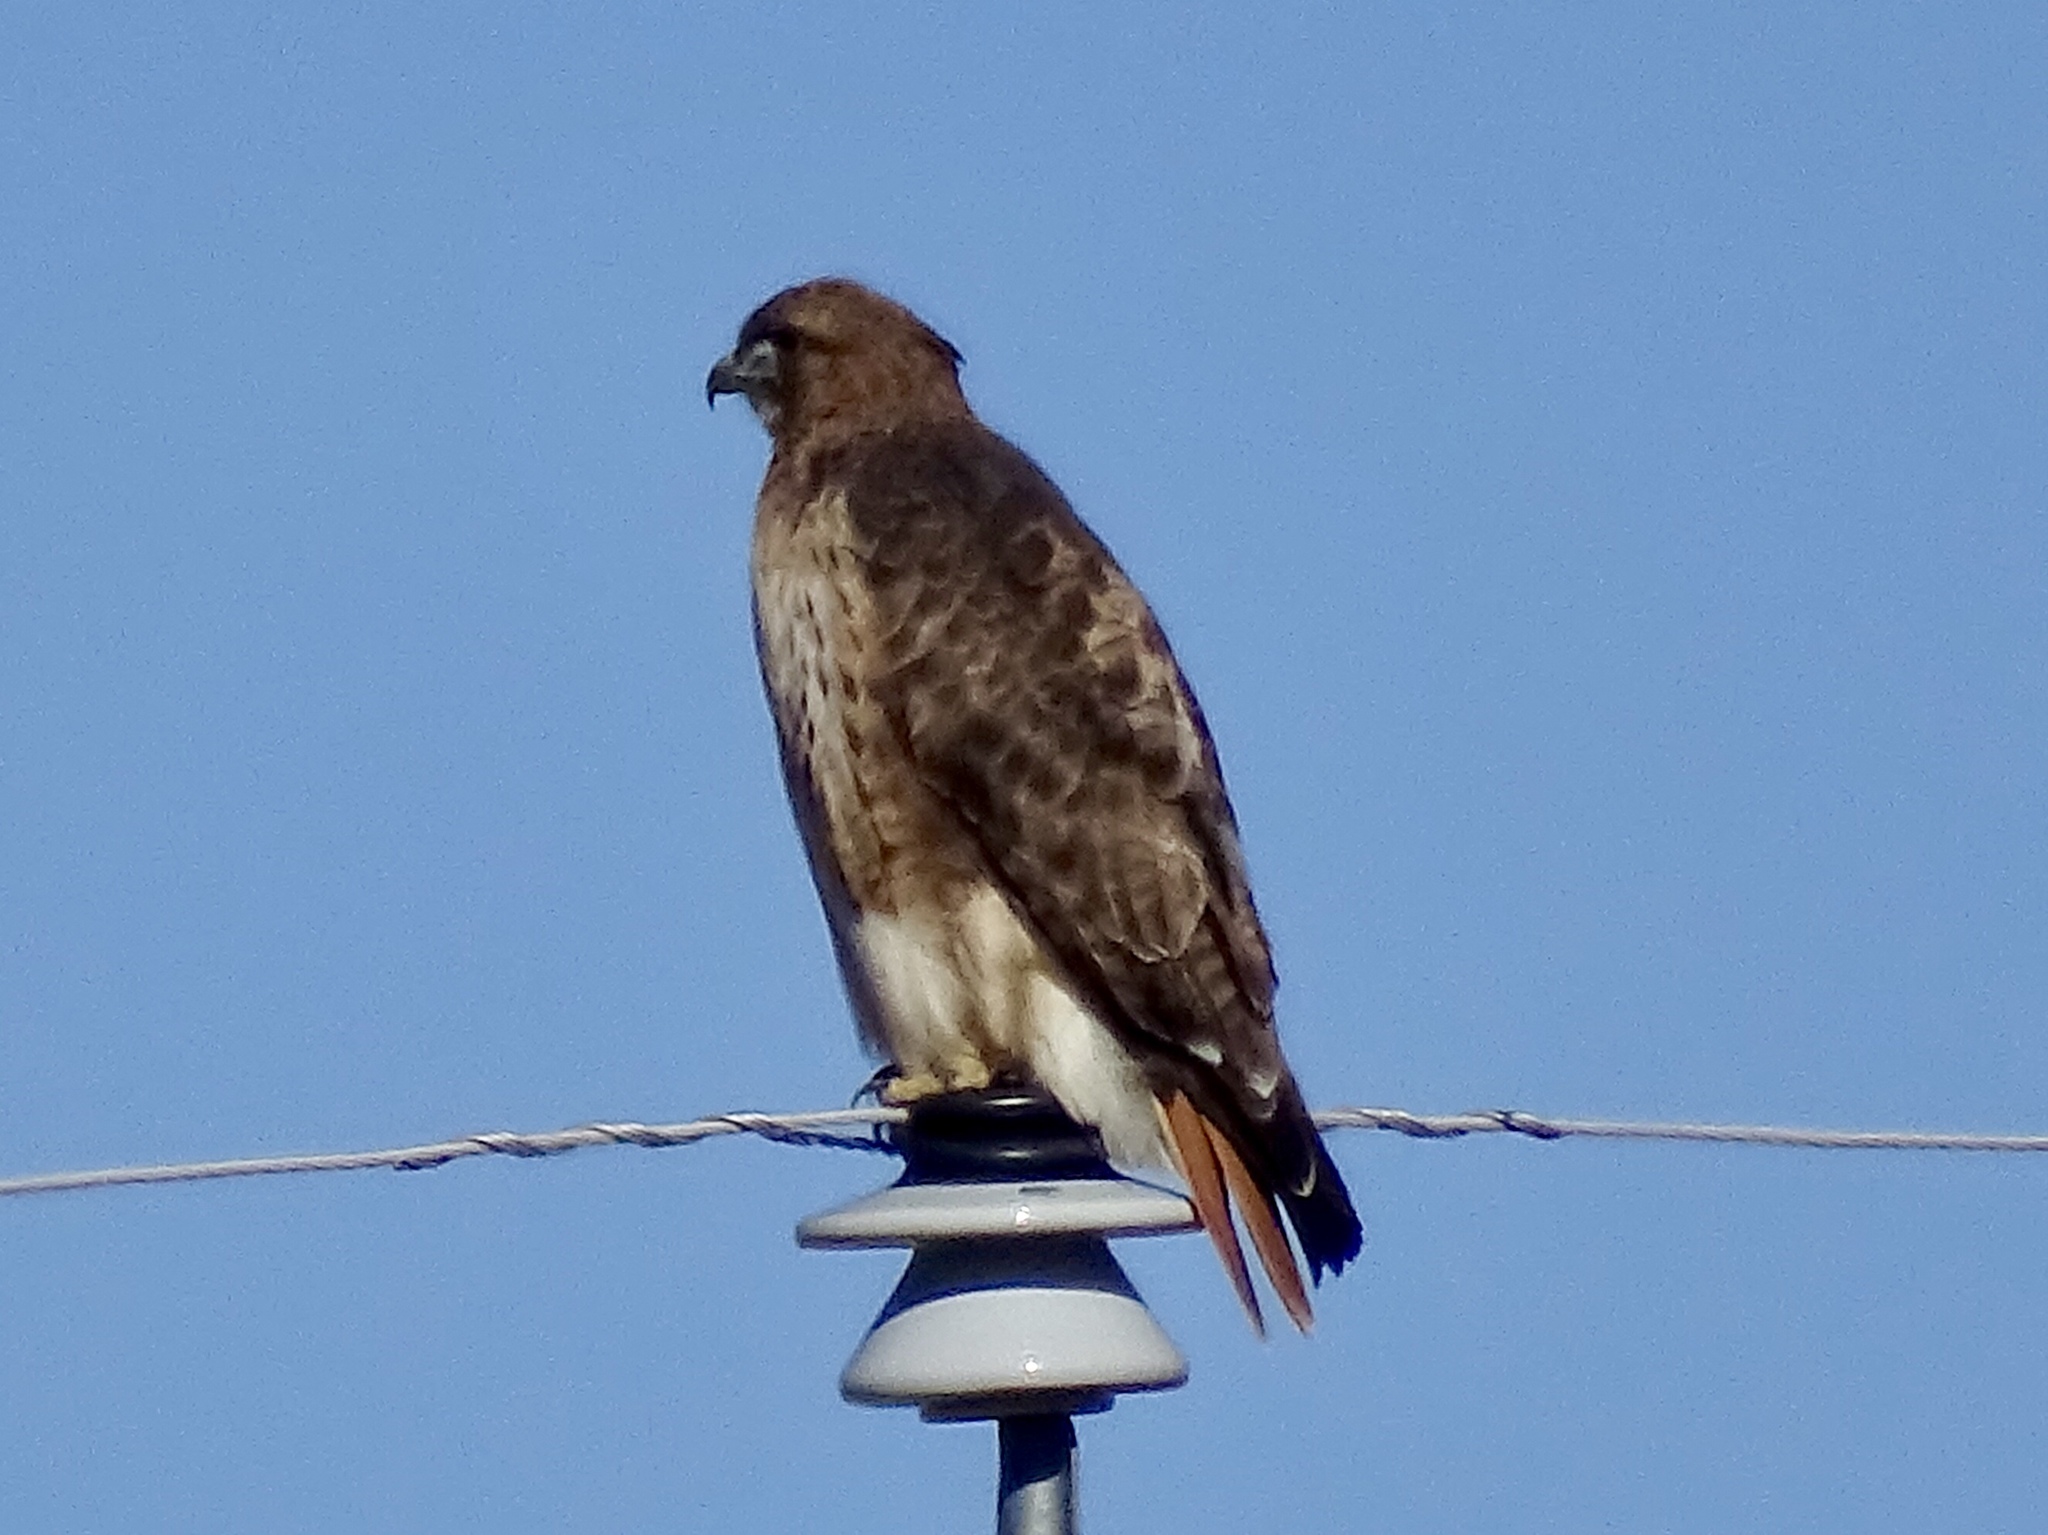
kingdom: Animalia
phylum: Chordata
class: Aves
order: Accipitriformes
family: Accipitridae
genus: Buteo
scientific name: Buteo jamaicensis
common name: Red-tailed hawk
